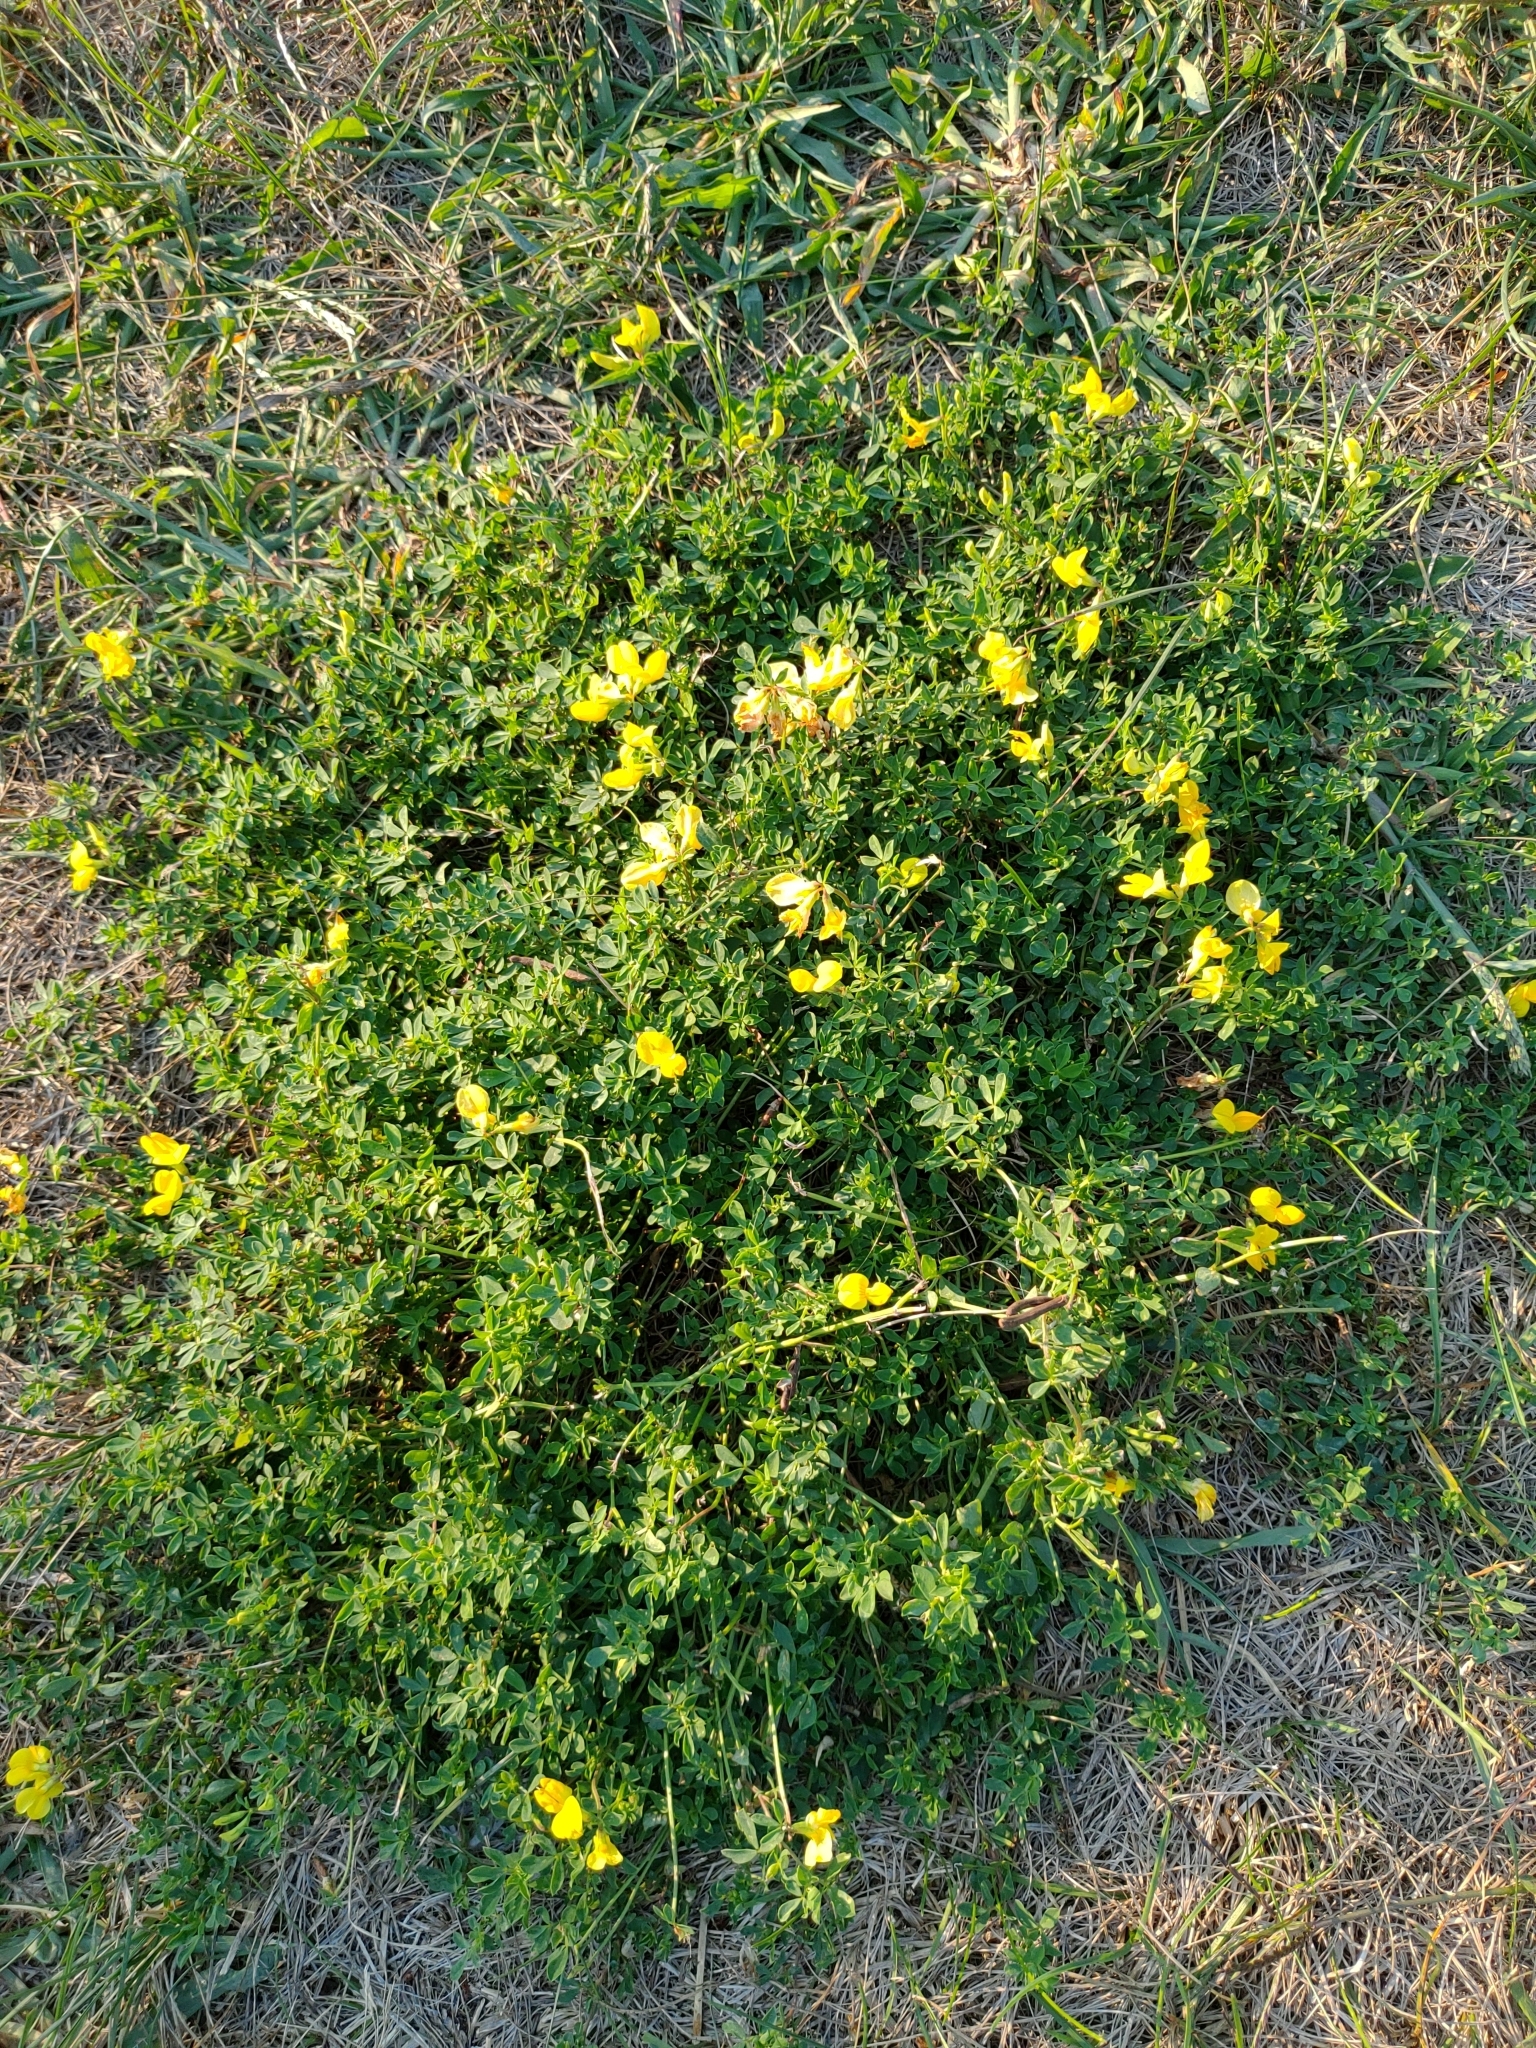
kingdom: Plantae
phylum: Tracheophyta
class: Magnoliopsida
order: Fabales
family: Fabaceae
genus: Lotus
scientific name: Lotus corniculatus
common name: Common bird's-foot-trefoil
